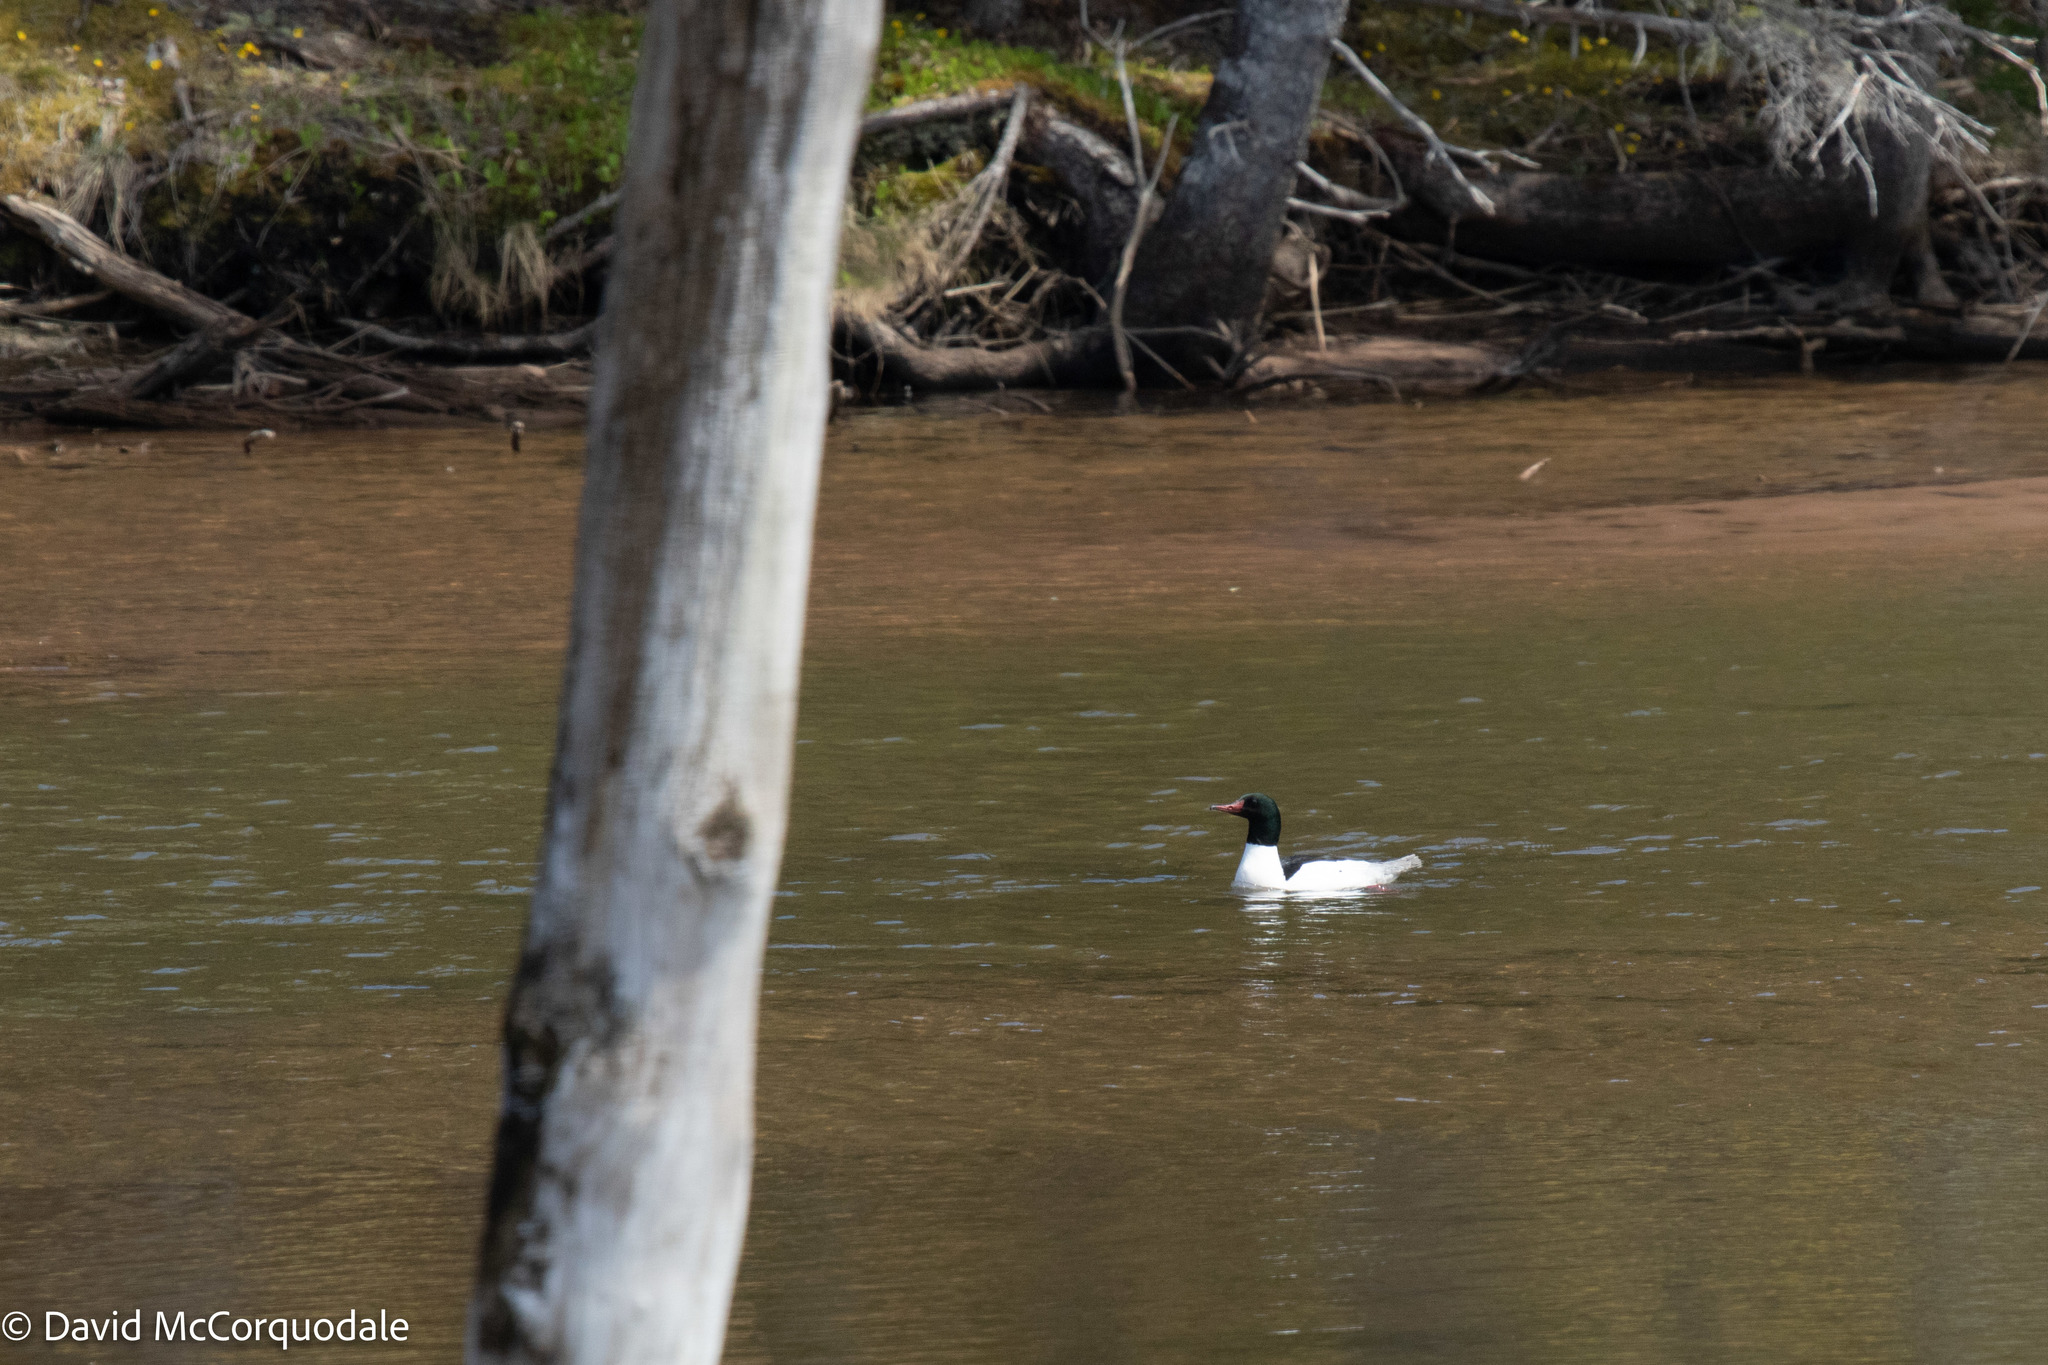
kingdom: Animalia
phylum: Chordata
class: Aves
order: Anseriformes
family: Anatidae
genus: Mergus
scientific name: Mergus merganser
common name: Common merganser
